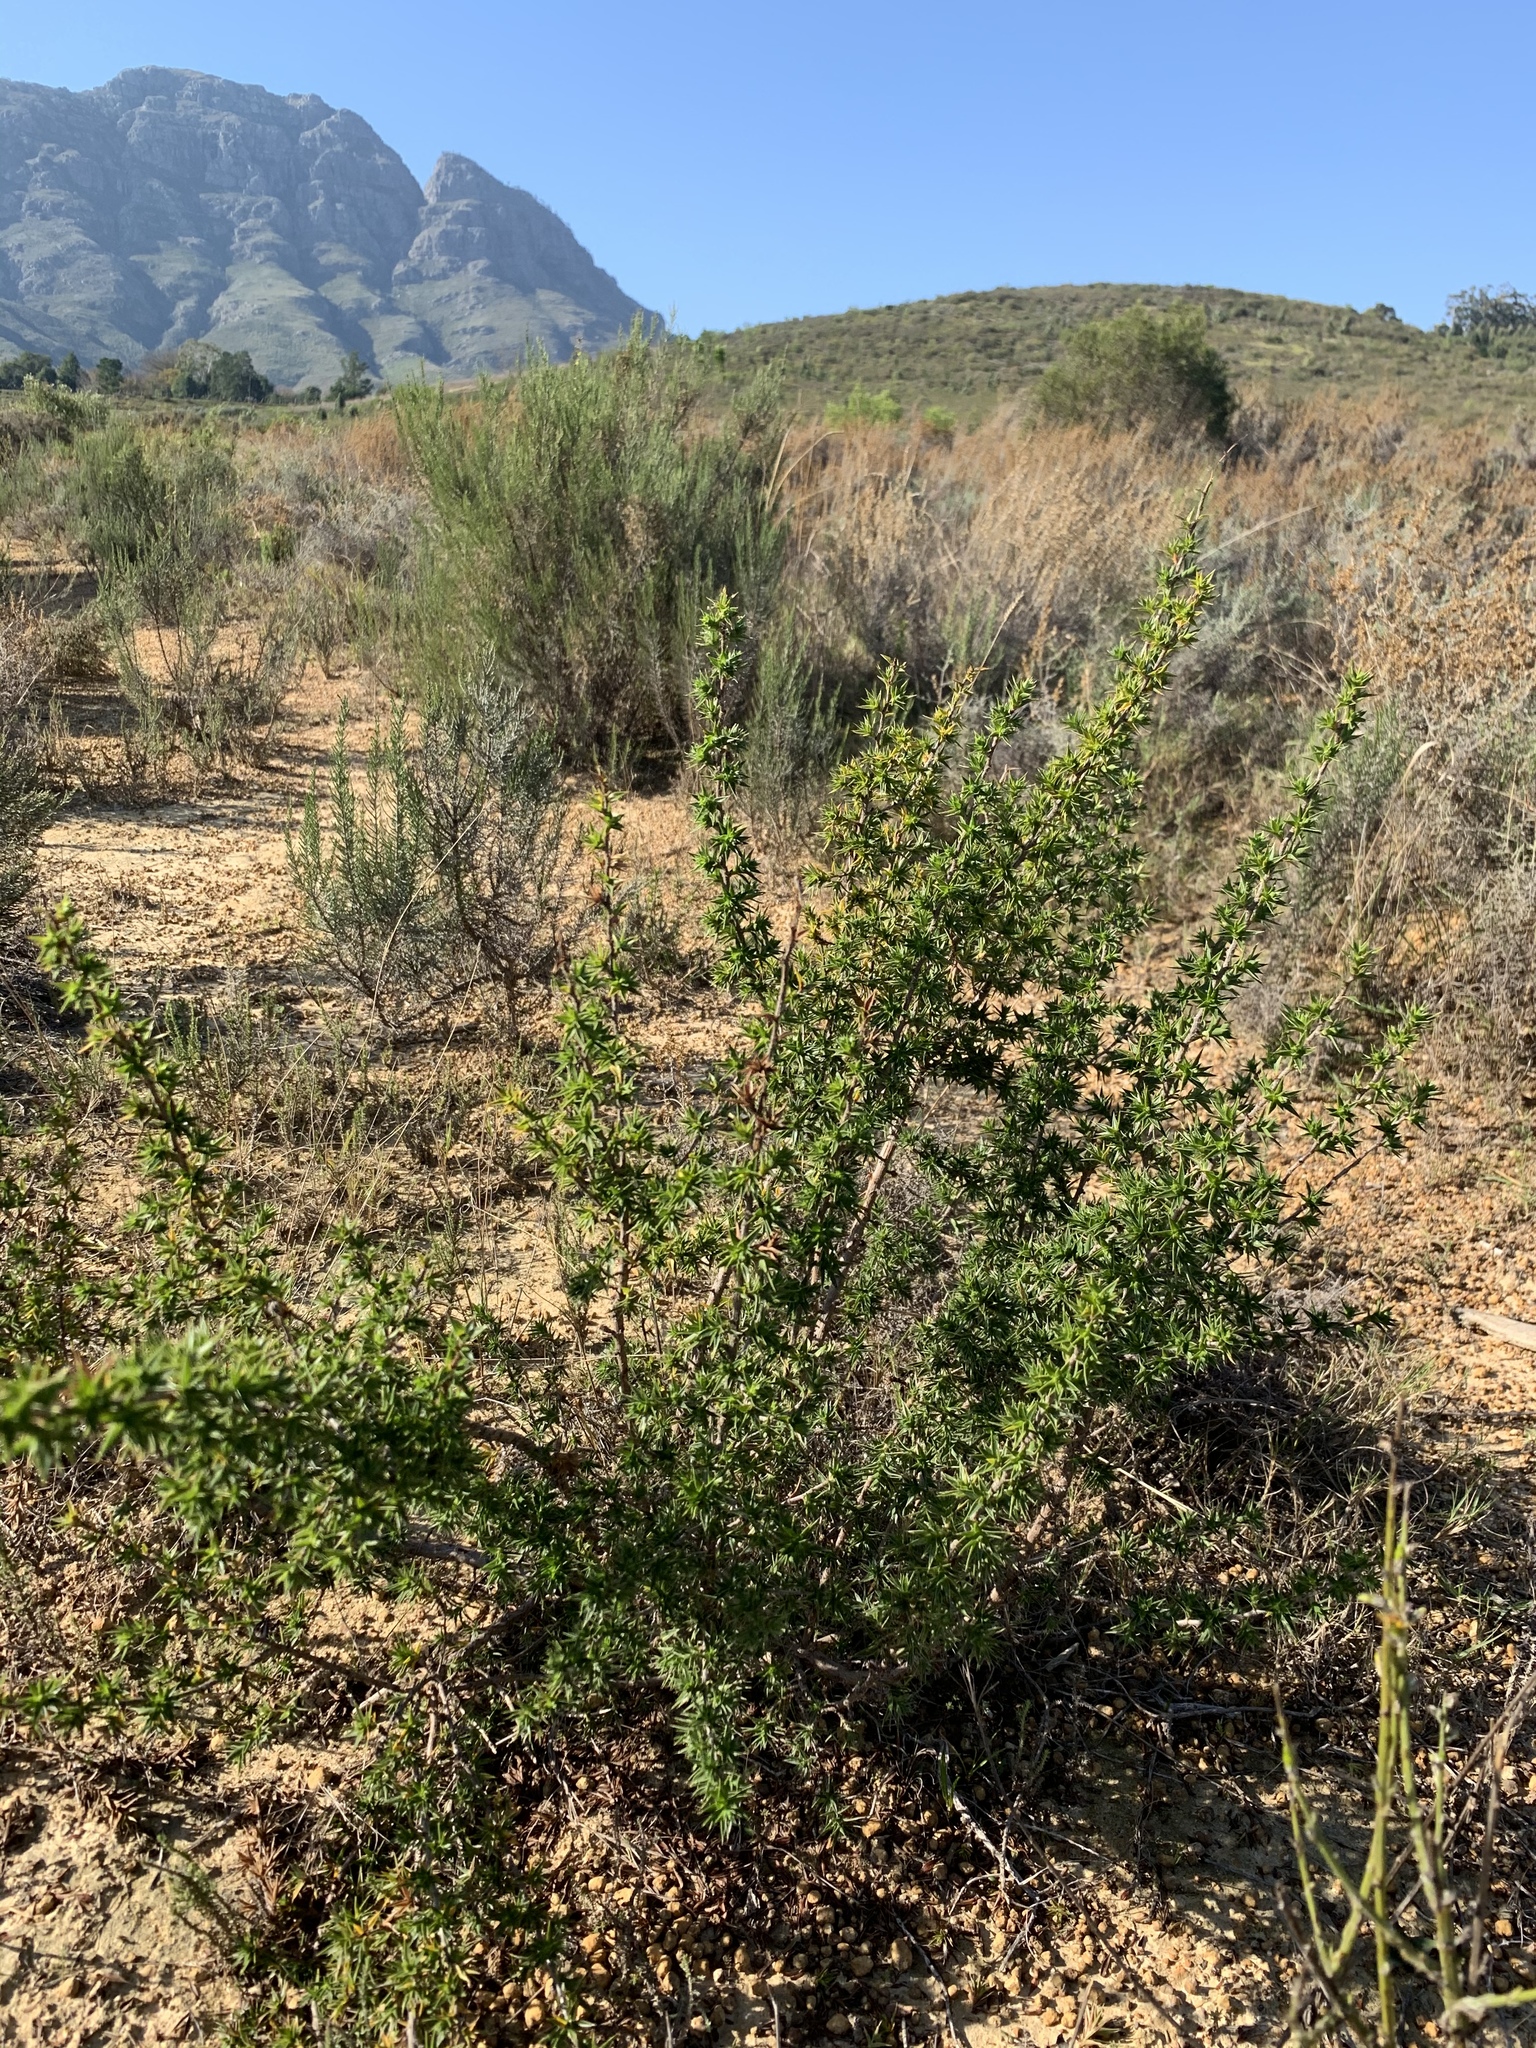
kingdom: Plantae
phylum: Tracheophyta
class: Magnoliopsida
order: Rosales
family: Rosaceae
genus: Cliffortia
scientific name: Cliffortia ruscifolia
